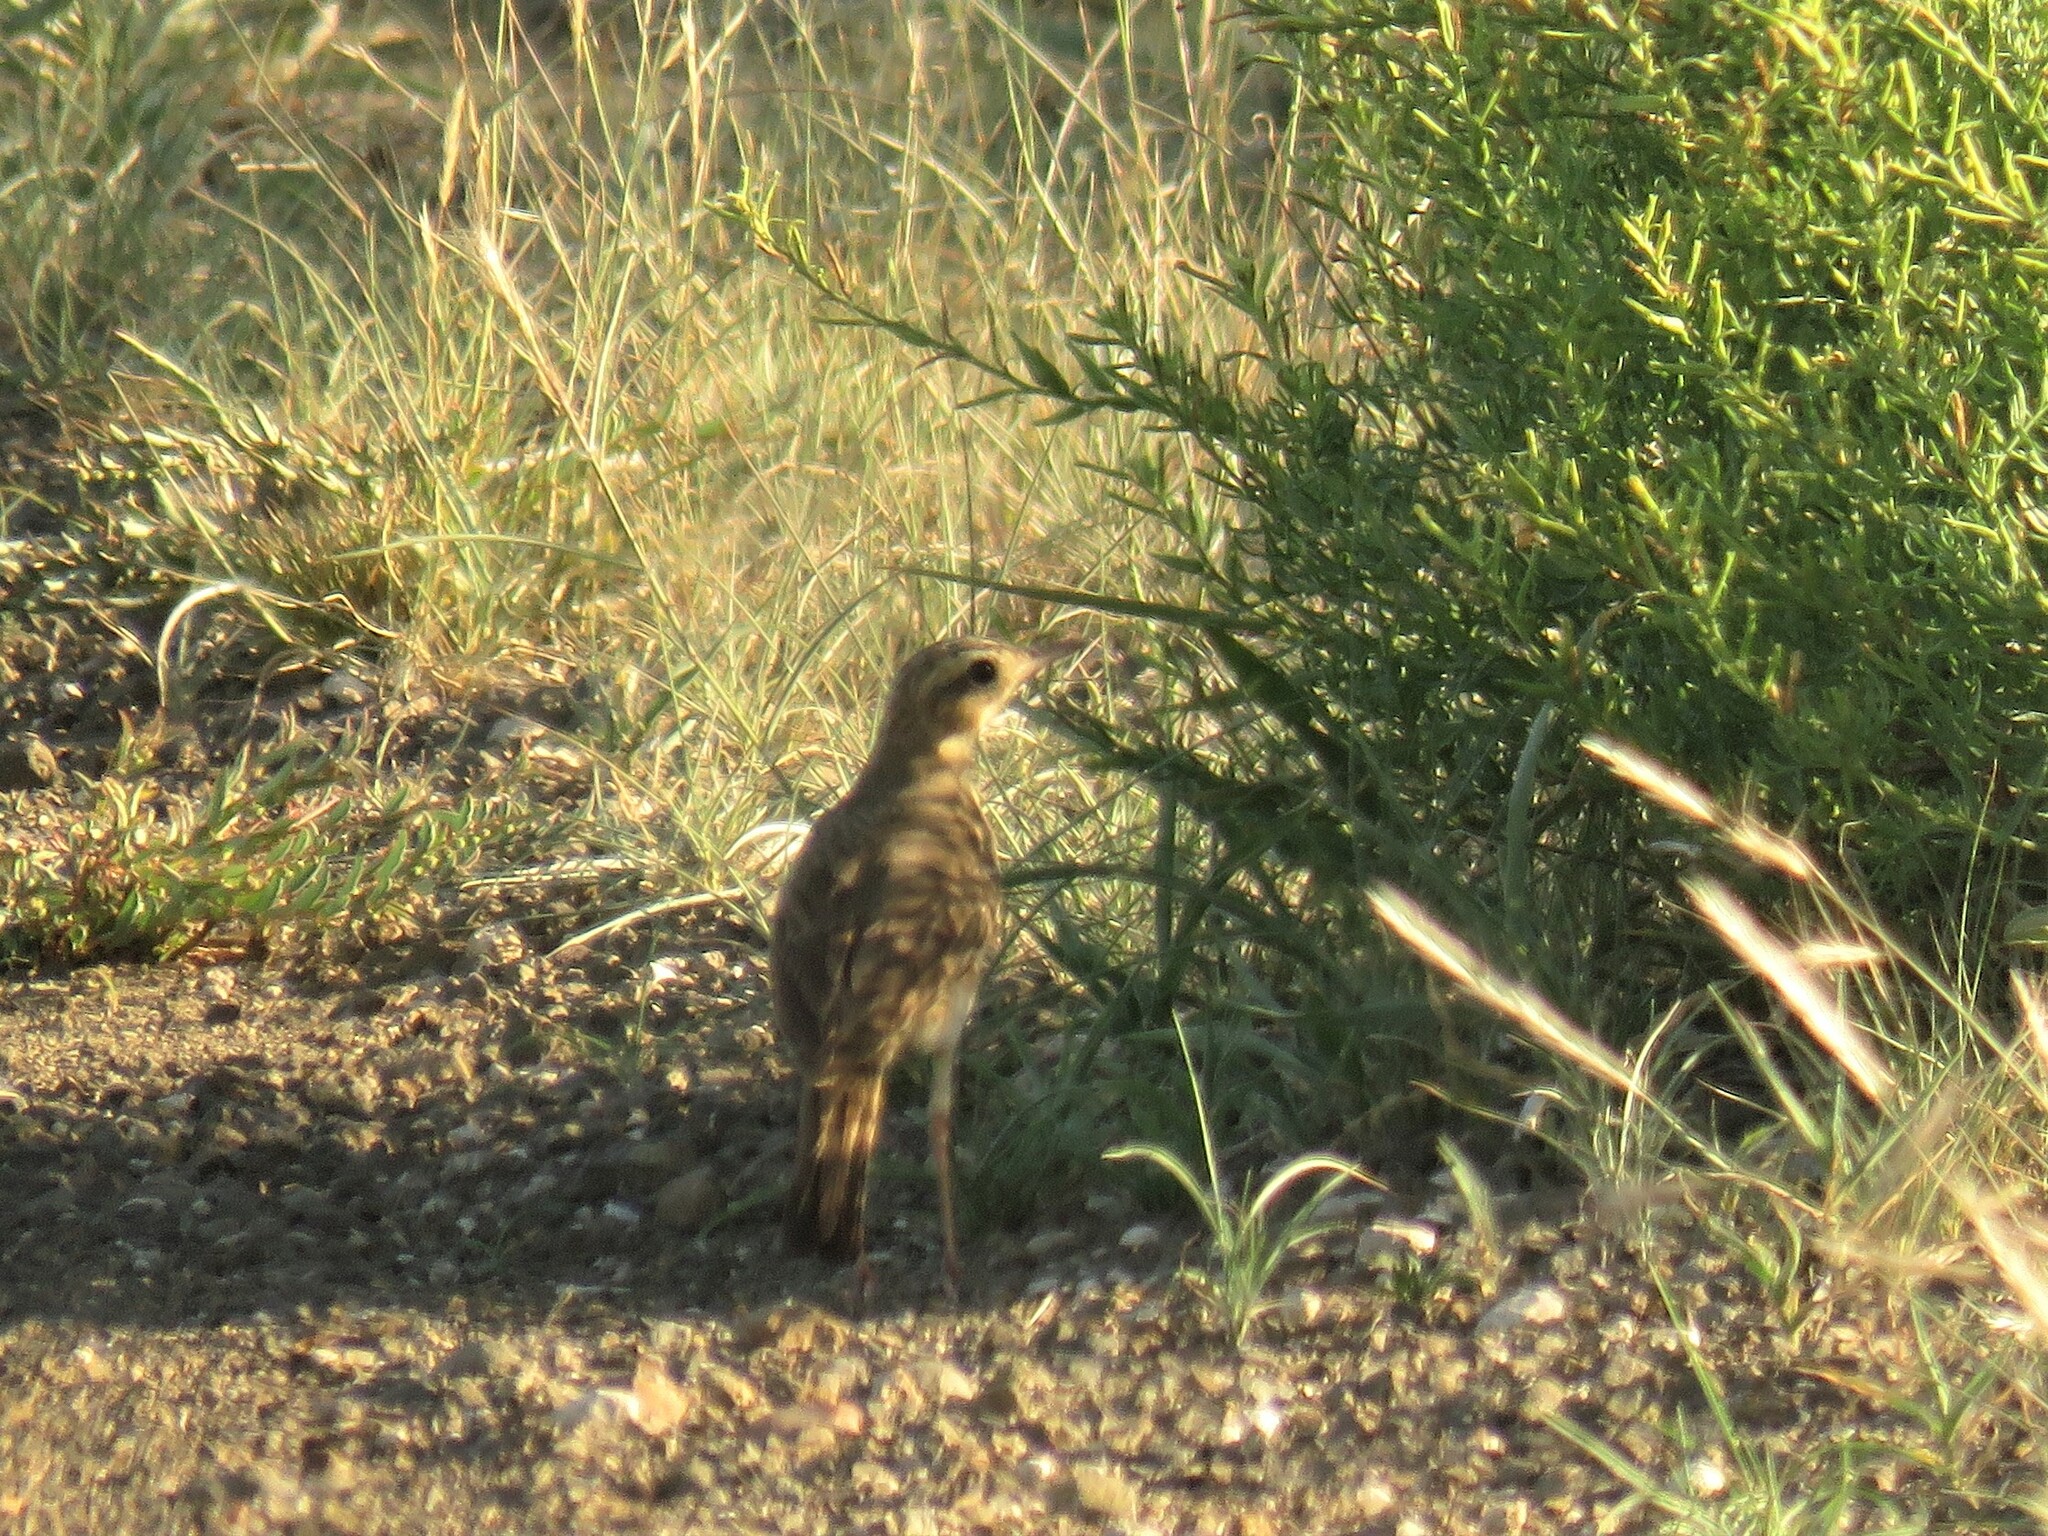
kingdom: Animalia
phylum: Chordata
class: Aves
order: Passeriformes
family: Motacillidae
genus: Anthus
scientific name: Anthus vaalensis
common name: Buffy pipit
